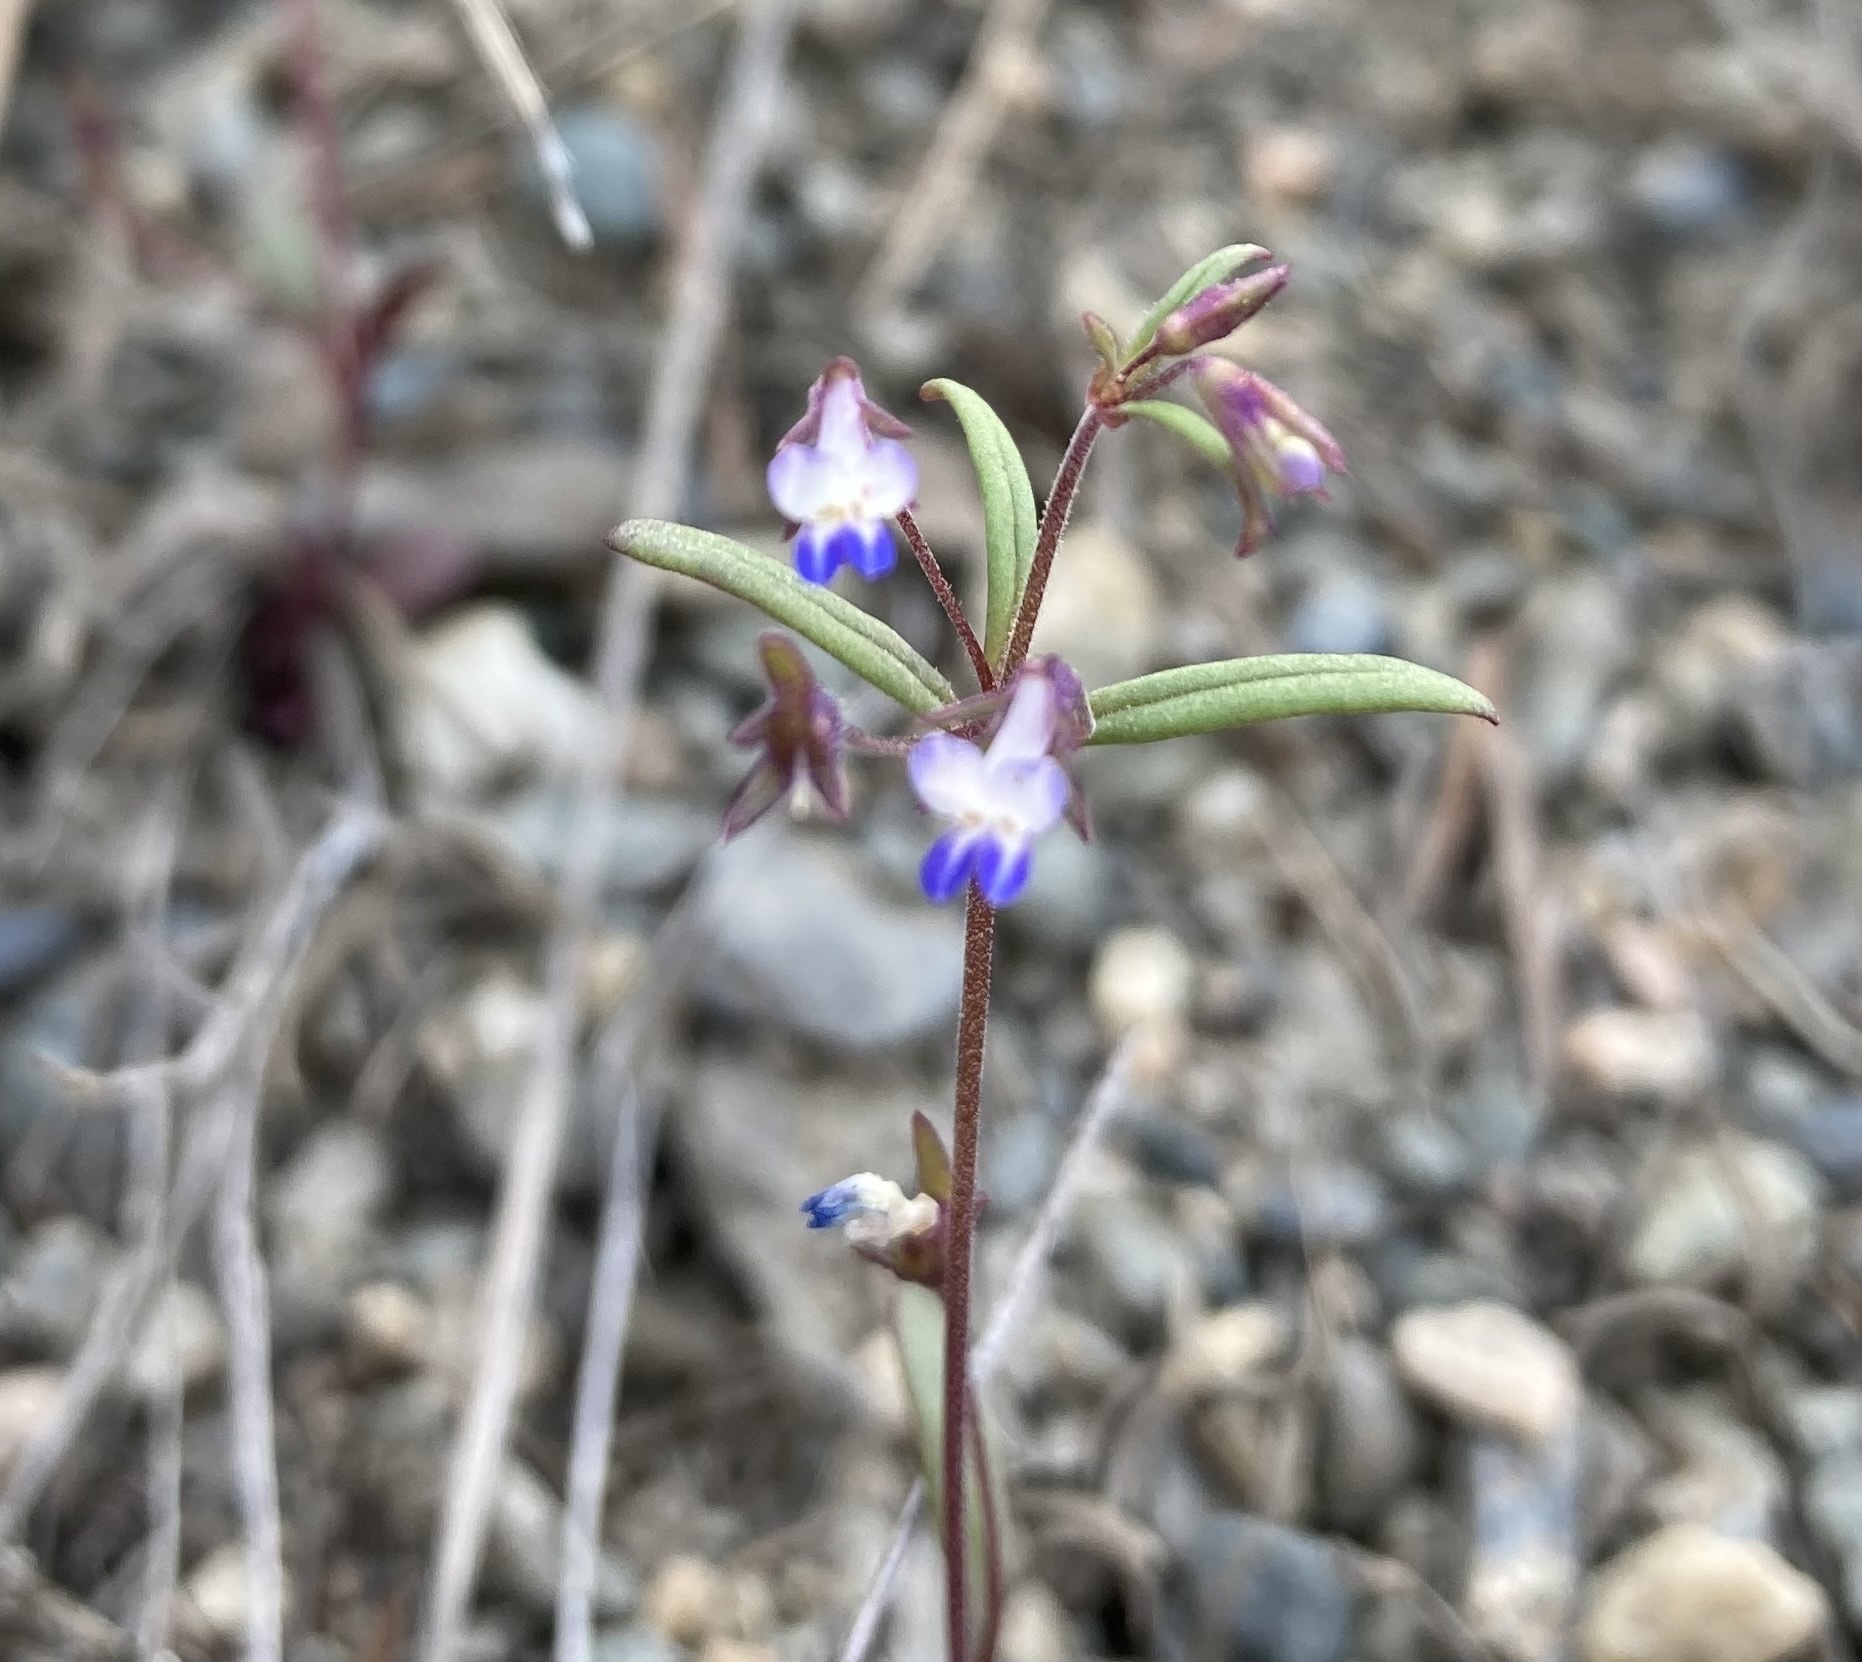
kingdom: Plantae
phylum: Tracheophyta
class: Magnoliopsida
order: Lamiales
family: Plantaginaceae
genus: Collinsia
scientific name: Collinsia parviflora
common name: Blue-lips
